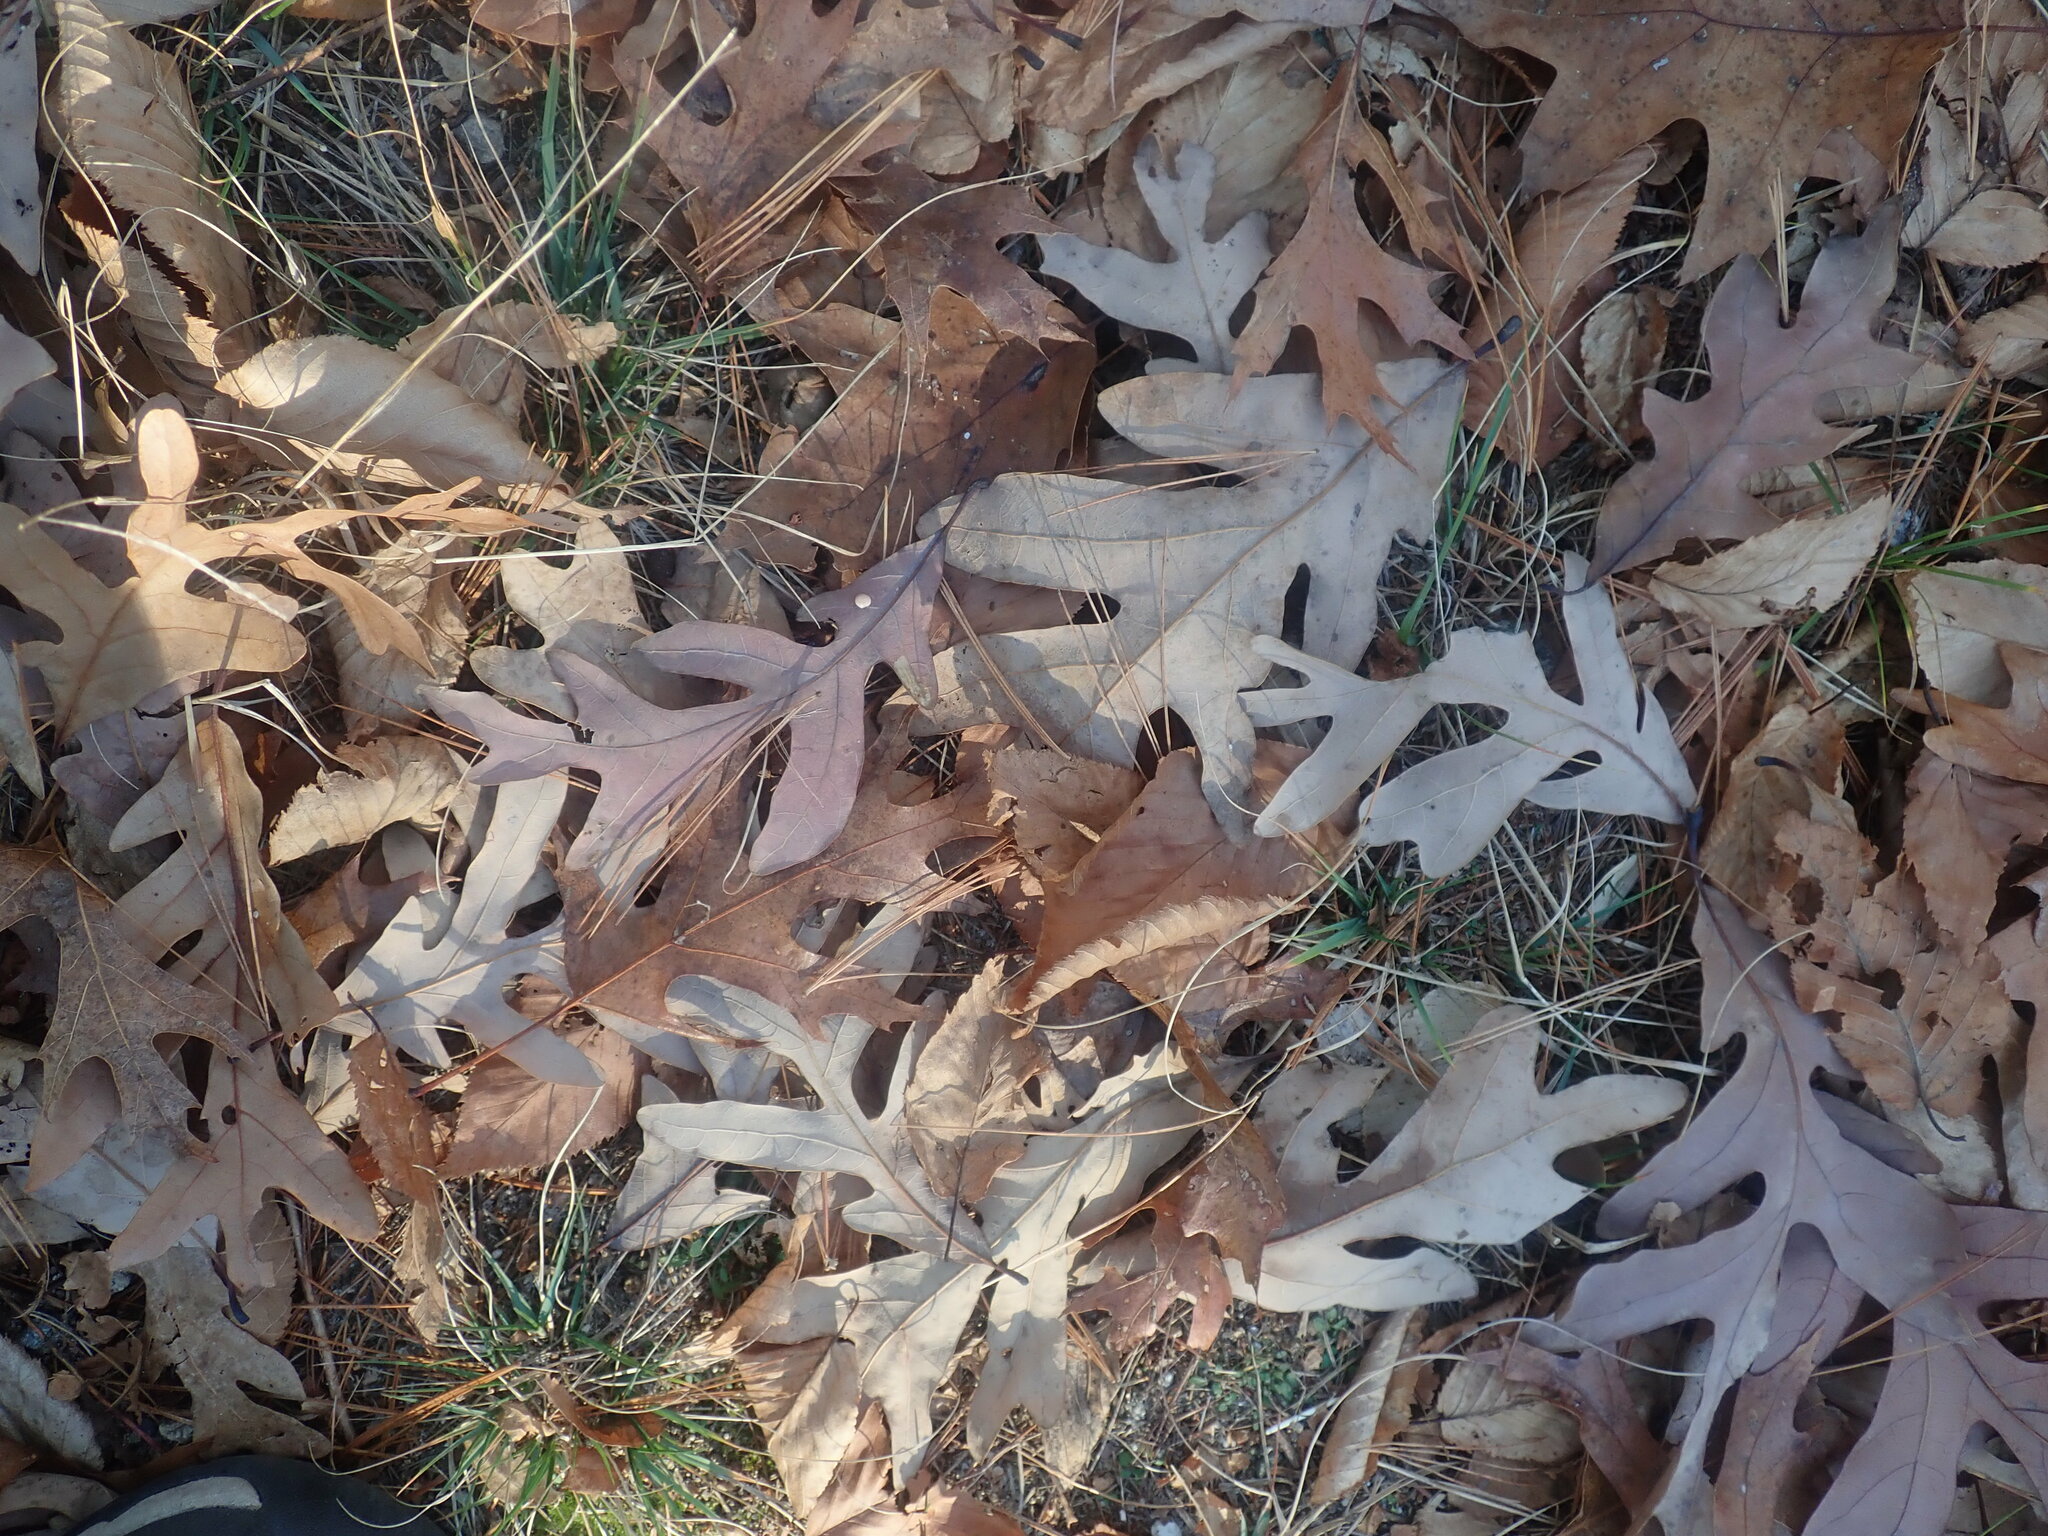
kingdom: Plantae
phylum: Tracheophyta
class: Magnoliopsida
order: Fagales
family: Fagaceae
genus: Quercus
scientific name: Quercus alba
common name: White oak
